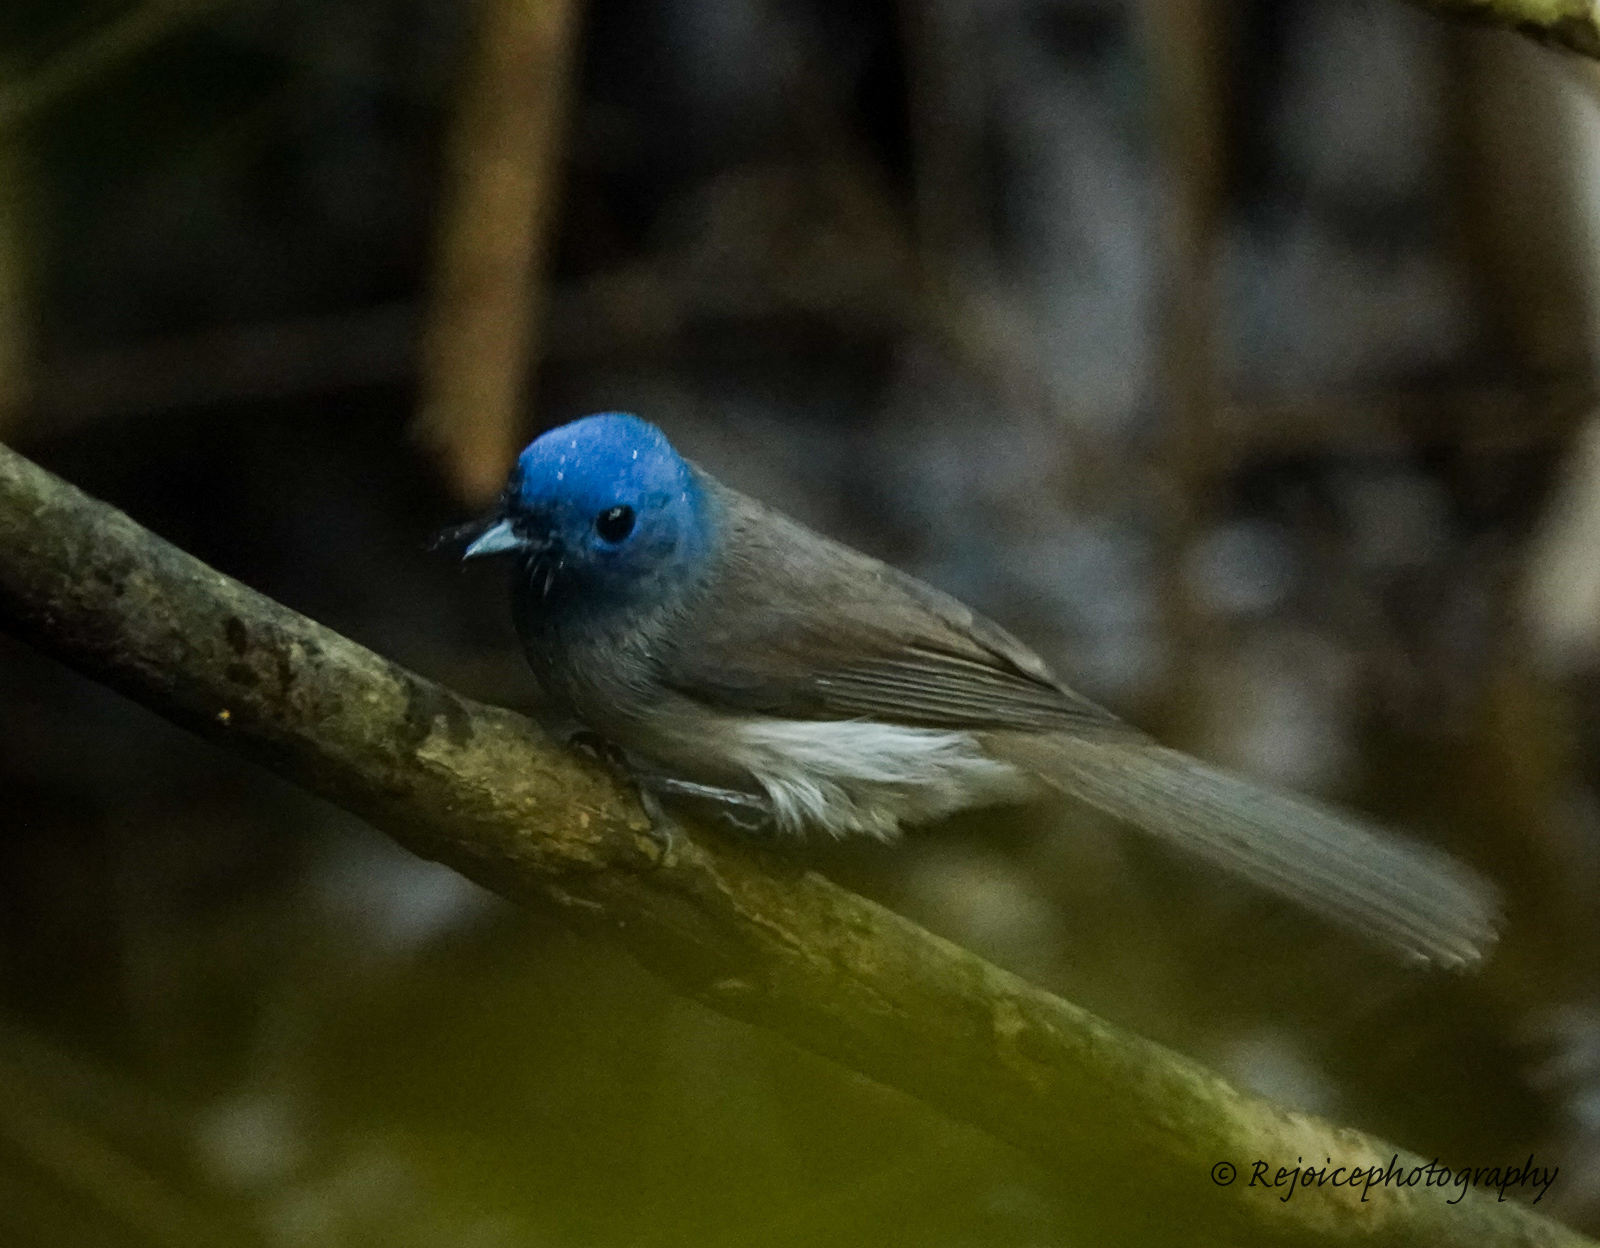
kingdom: Animalia
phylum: Chordata
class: Aves
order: Passeriformes
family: Monarchidae
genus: Hypothymis
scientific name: Hypothymis azurea
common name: Black-naped monarch
